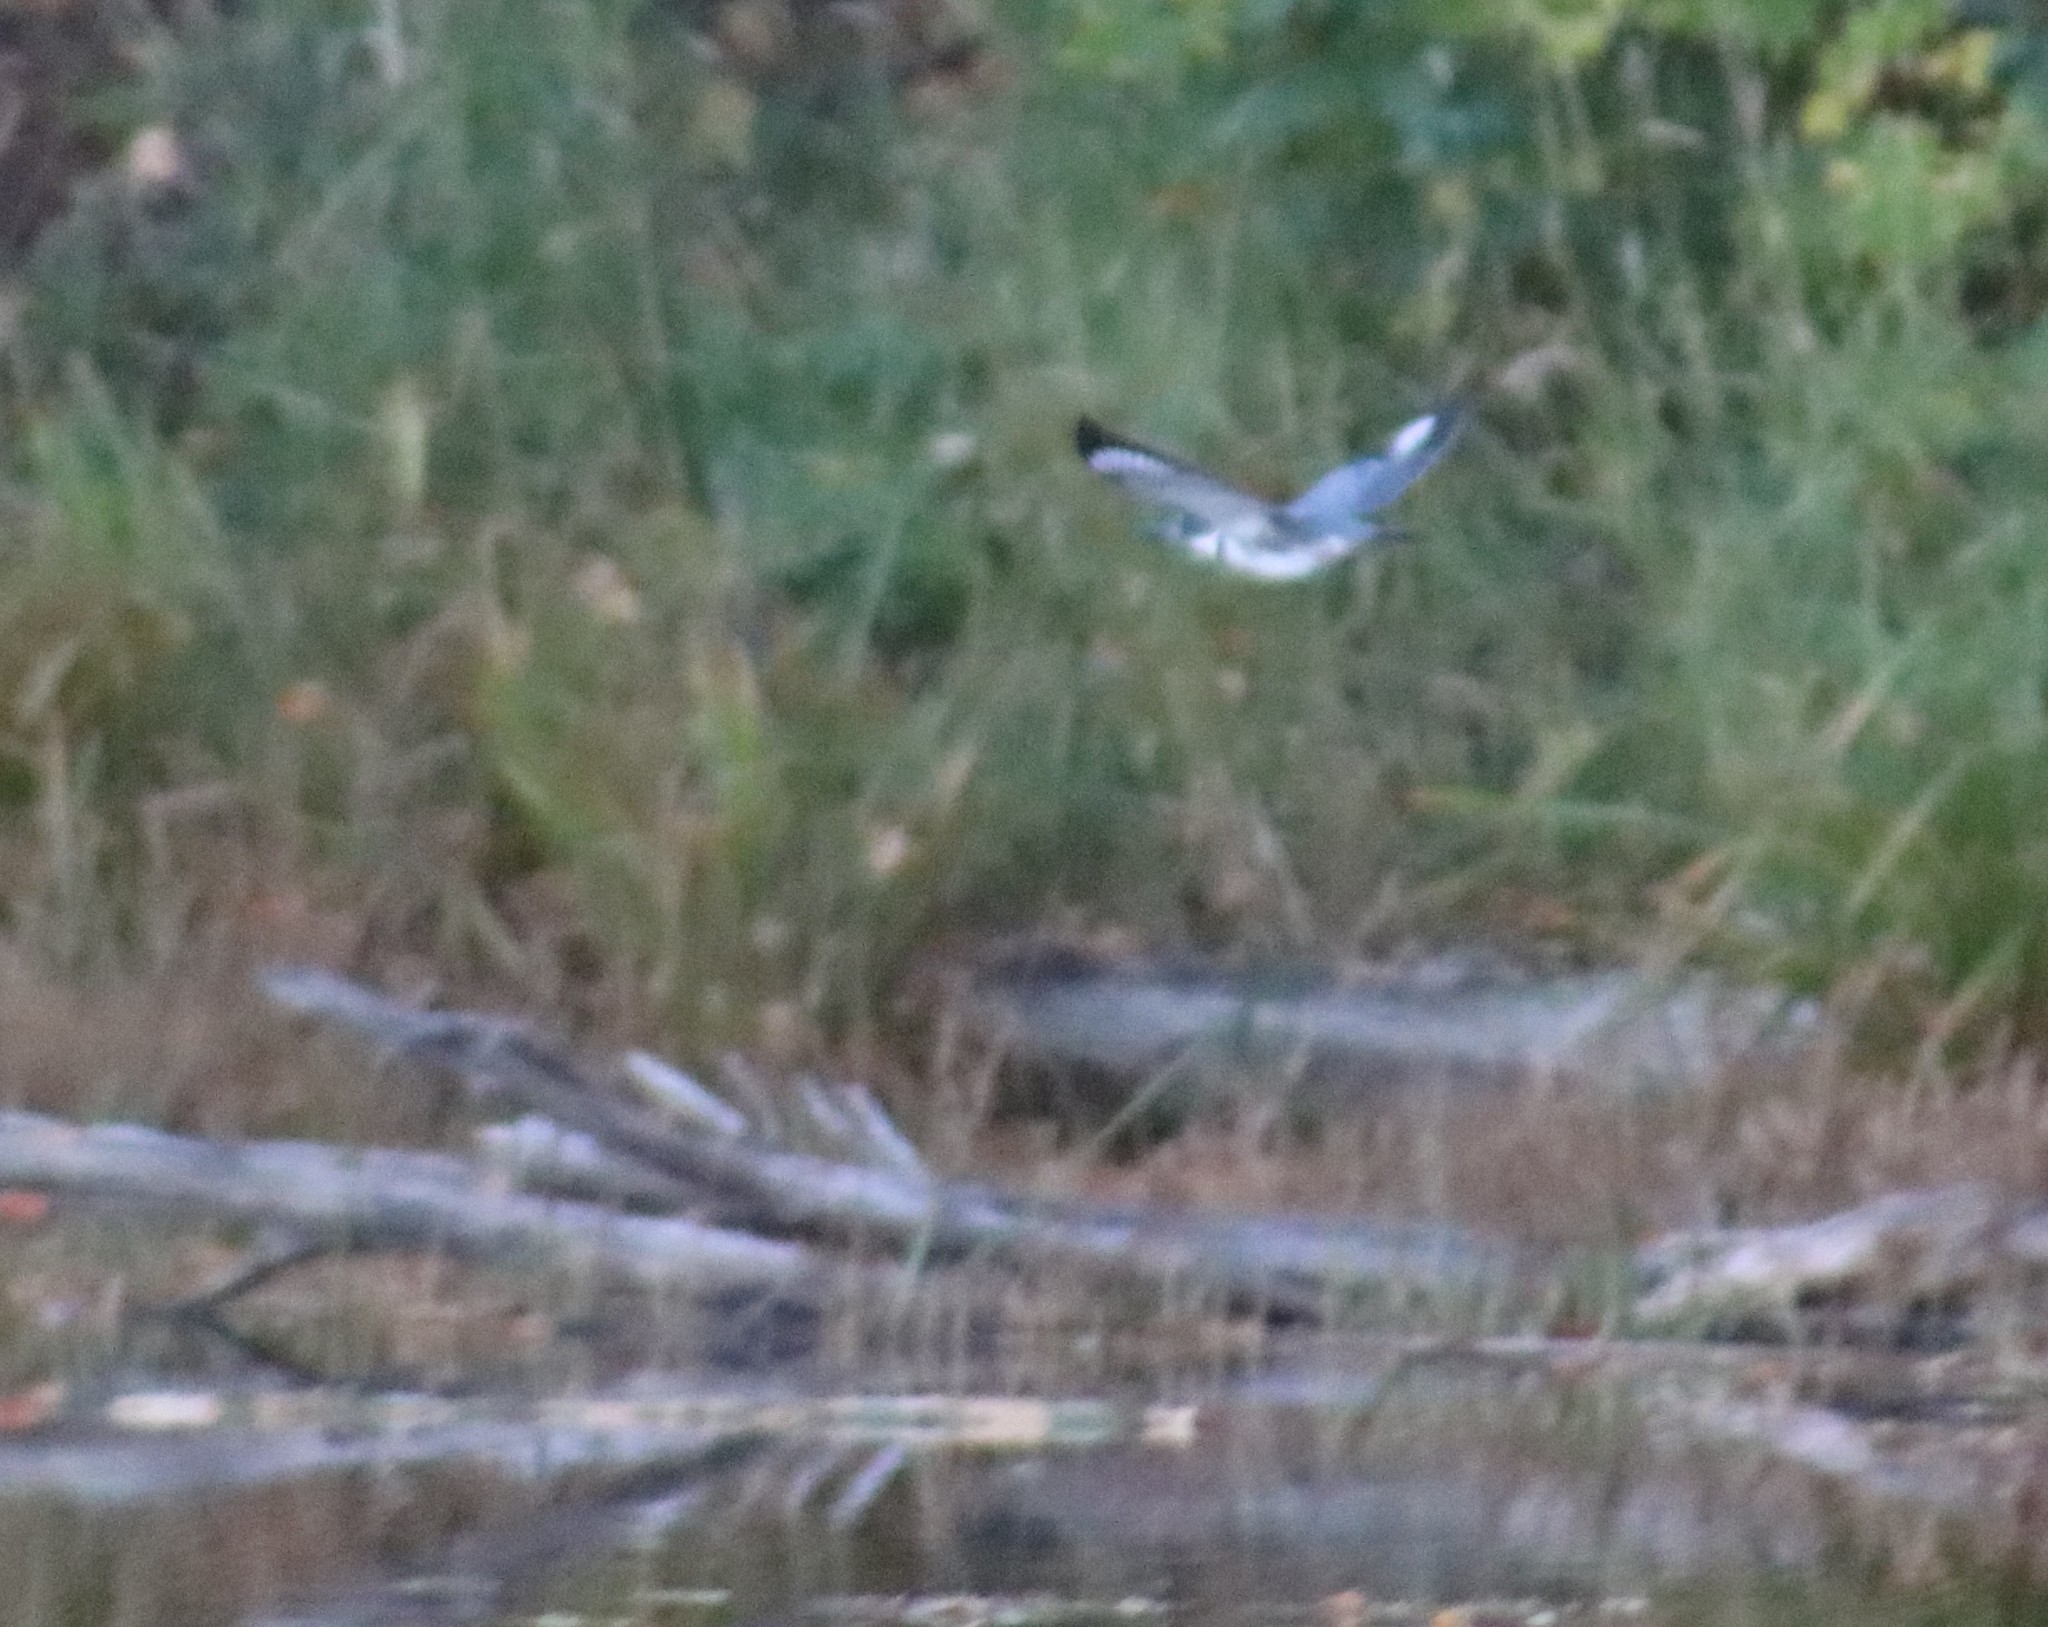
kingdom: Animalia
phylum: Chordata
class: Aves
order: Coraciiformes
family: Alcedinidae
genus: Megaceryle
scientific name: Megaceryle alcyon
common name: Belted kingfisher
